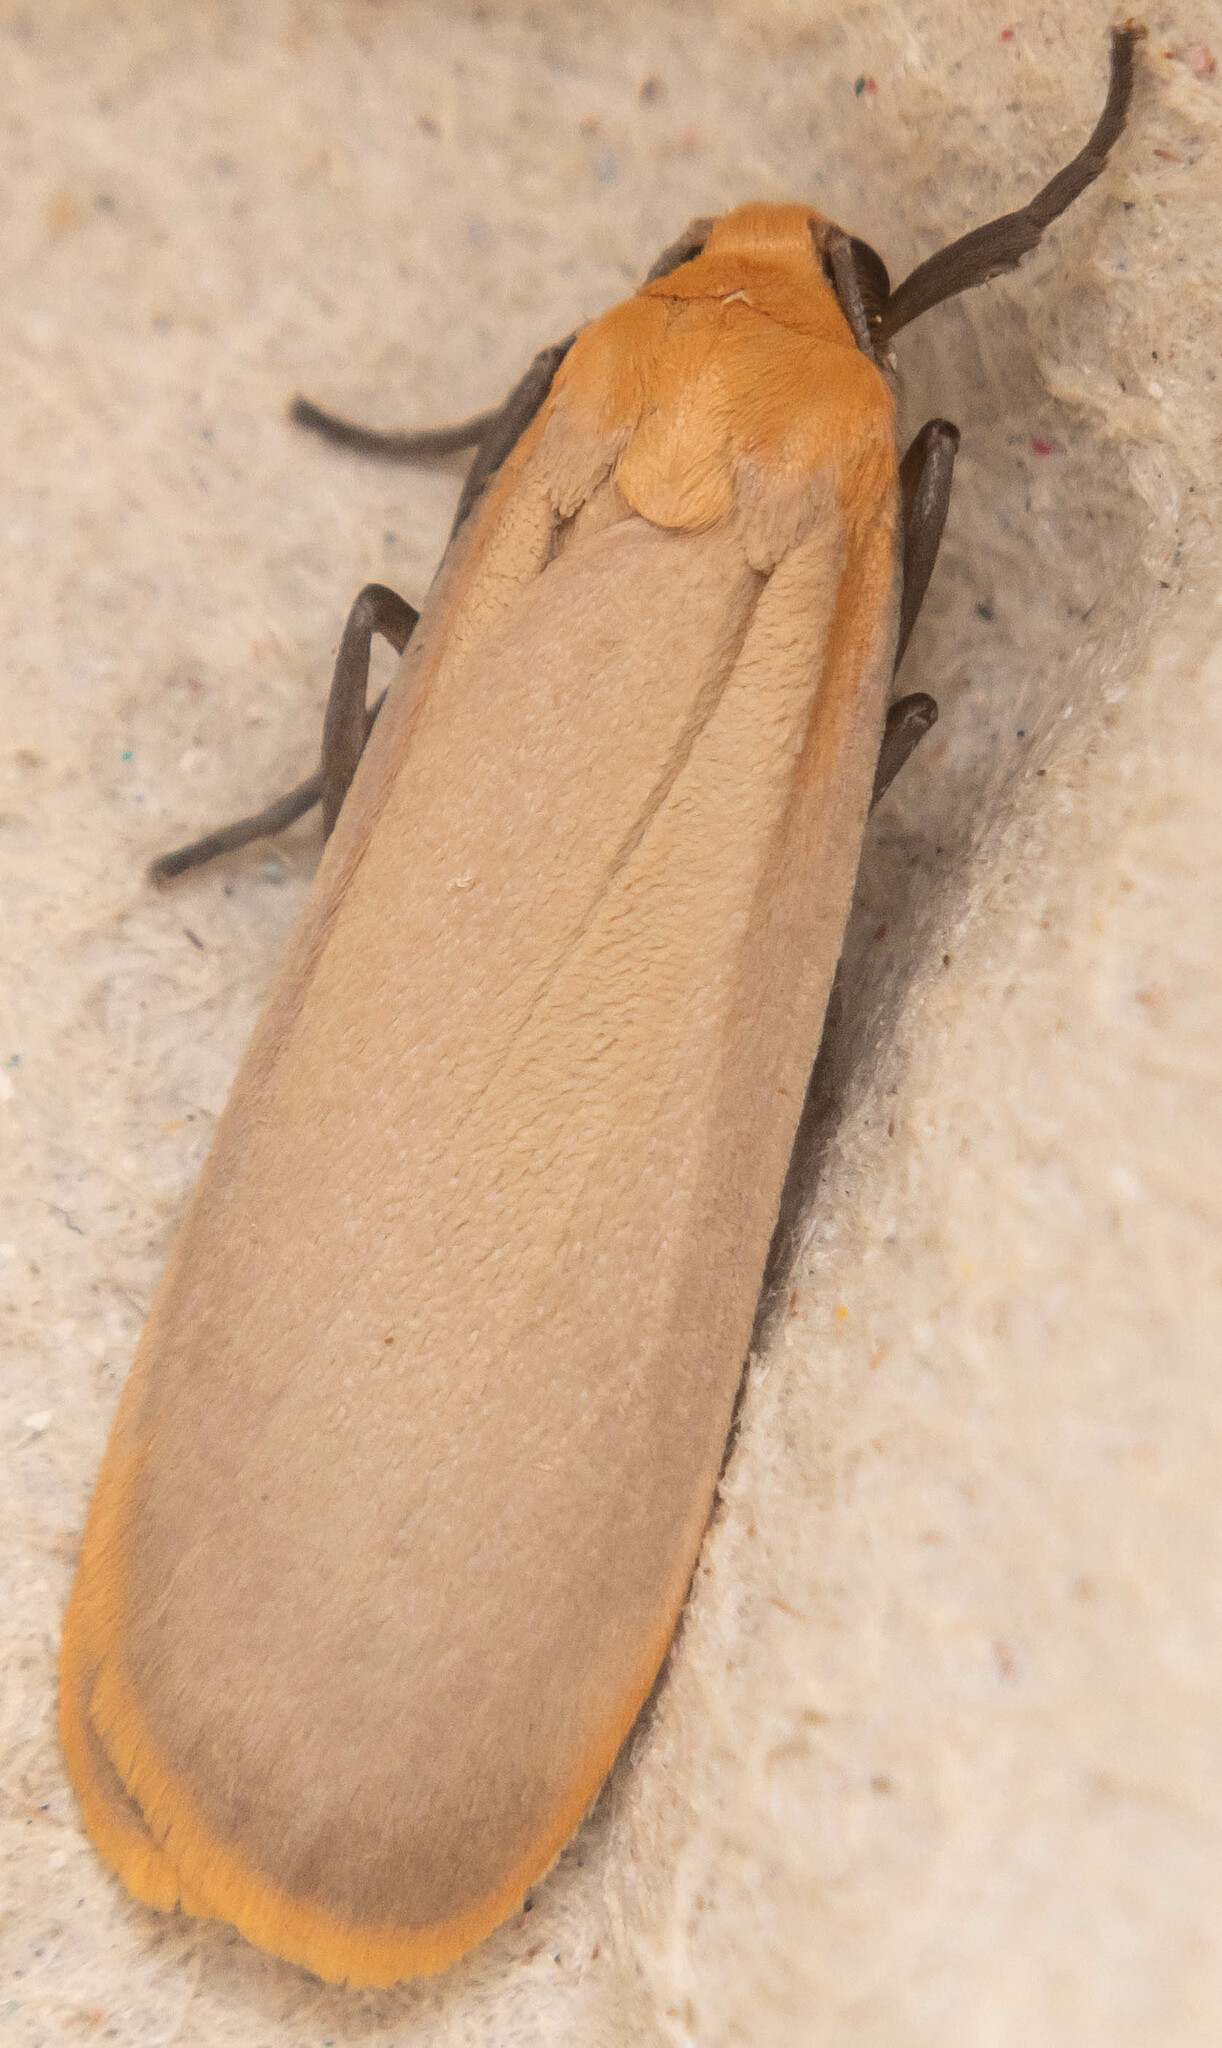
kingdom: Animalia
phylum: Arthropoda
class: Insecta
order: Lepidoptera
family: Erebidae
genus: Katha
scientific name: Katha depressa
